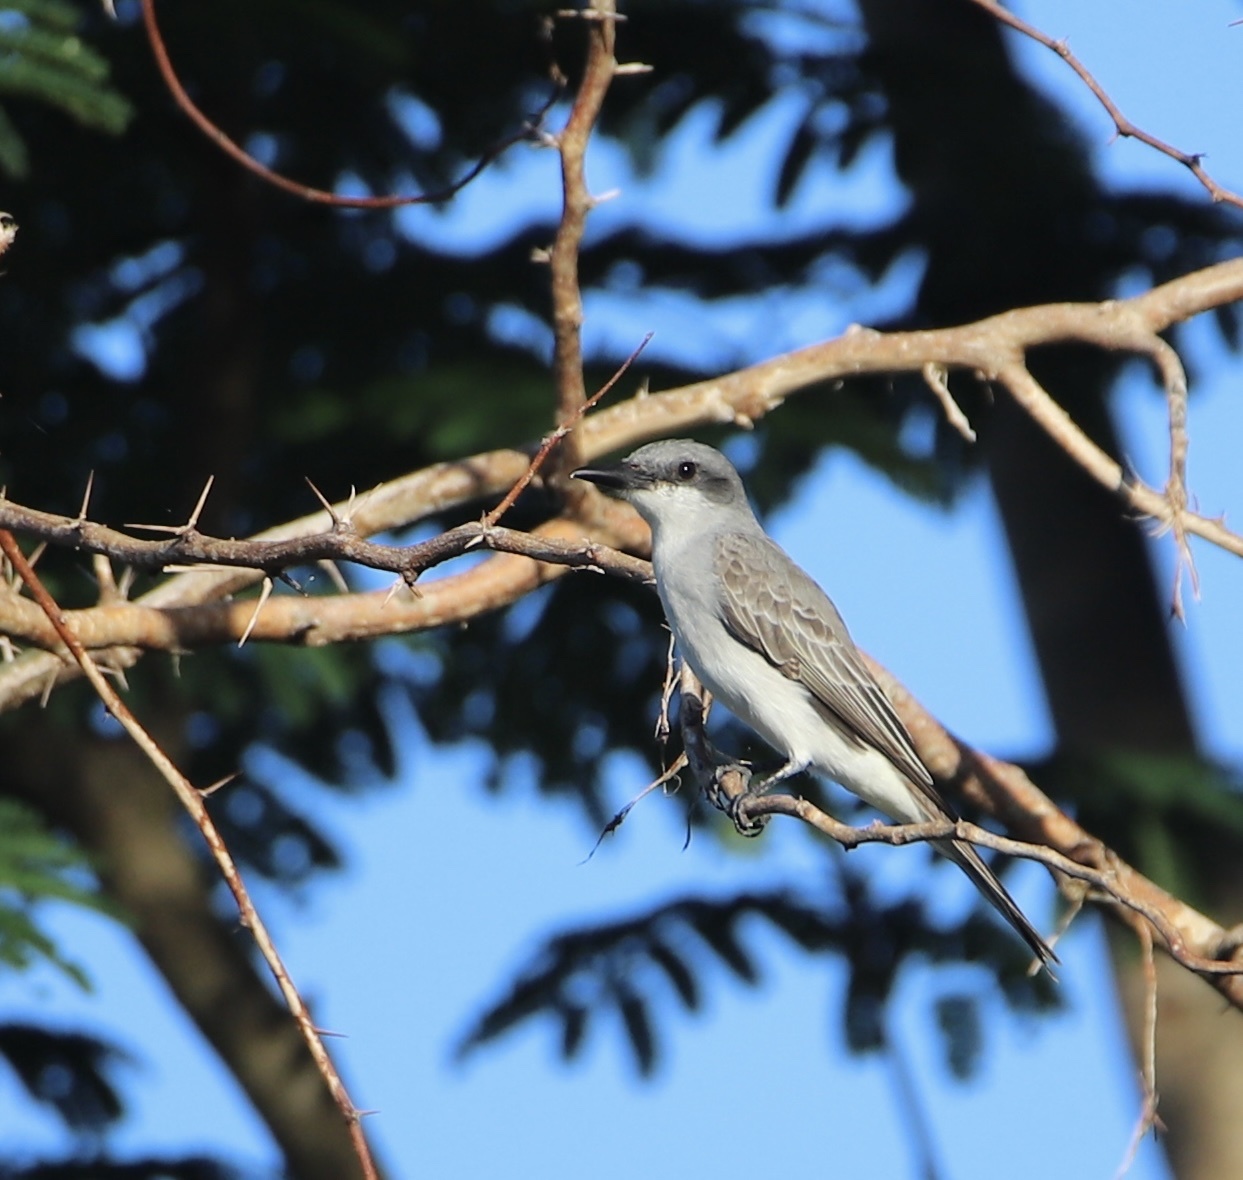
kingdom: Animalia
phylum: Chordata
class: Aves
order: Passeriformes
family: Tyrannidae
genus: Tyrannus
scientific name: Tyrannus dominicensis
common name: Gray kingbird
